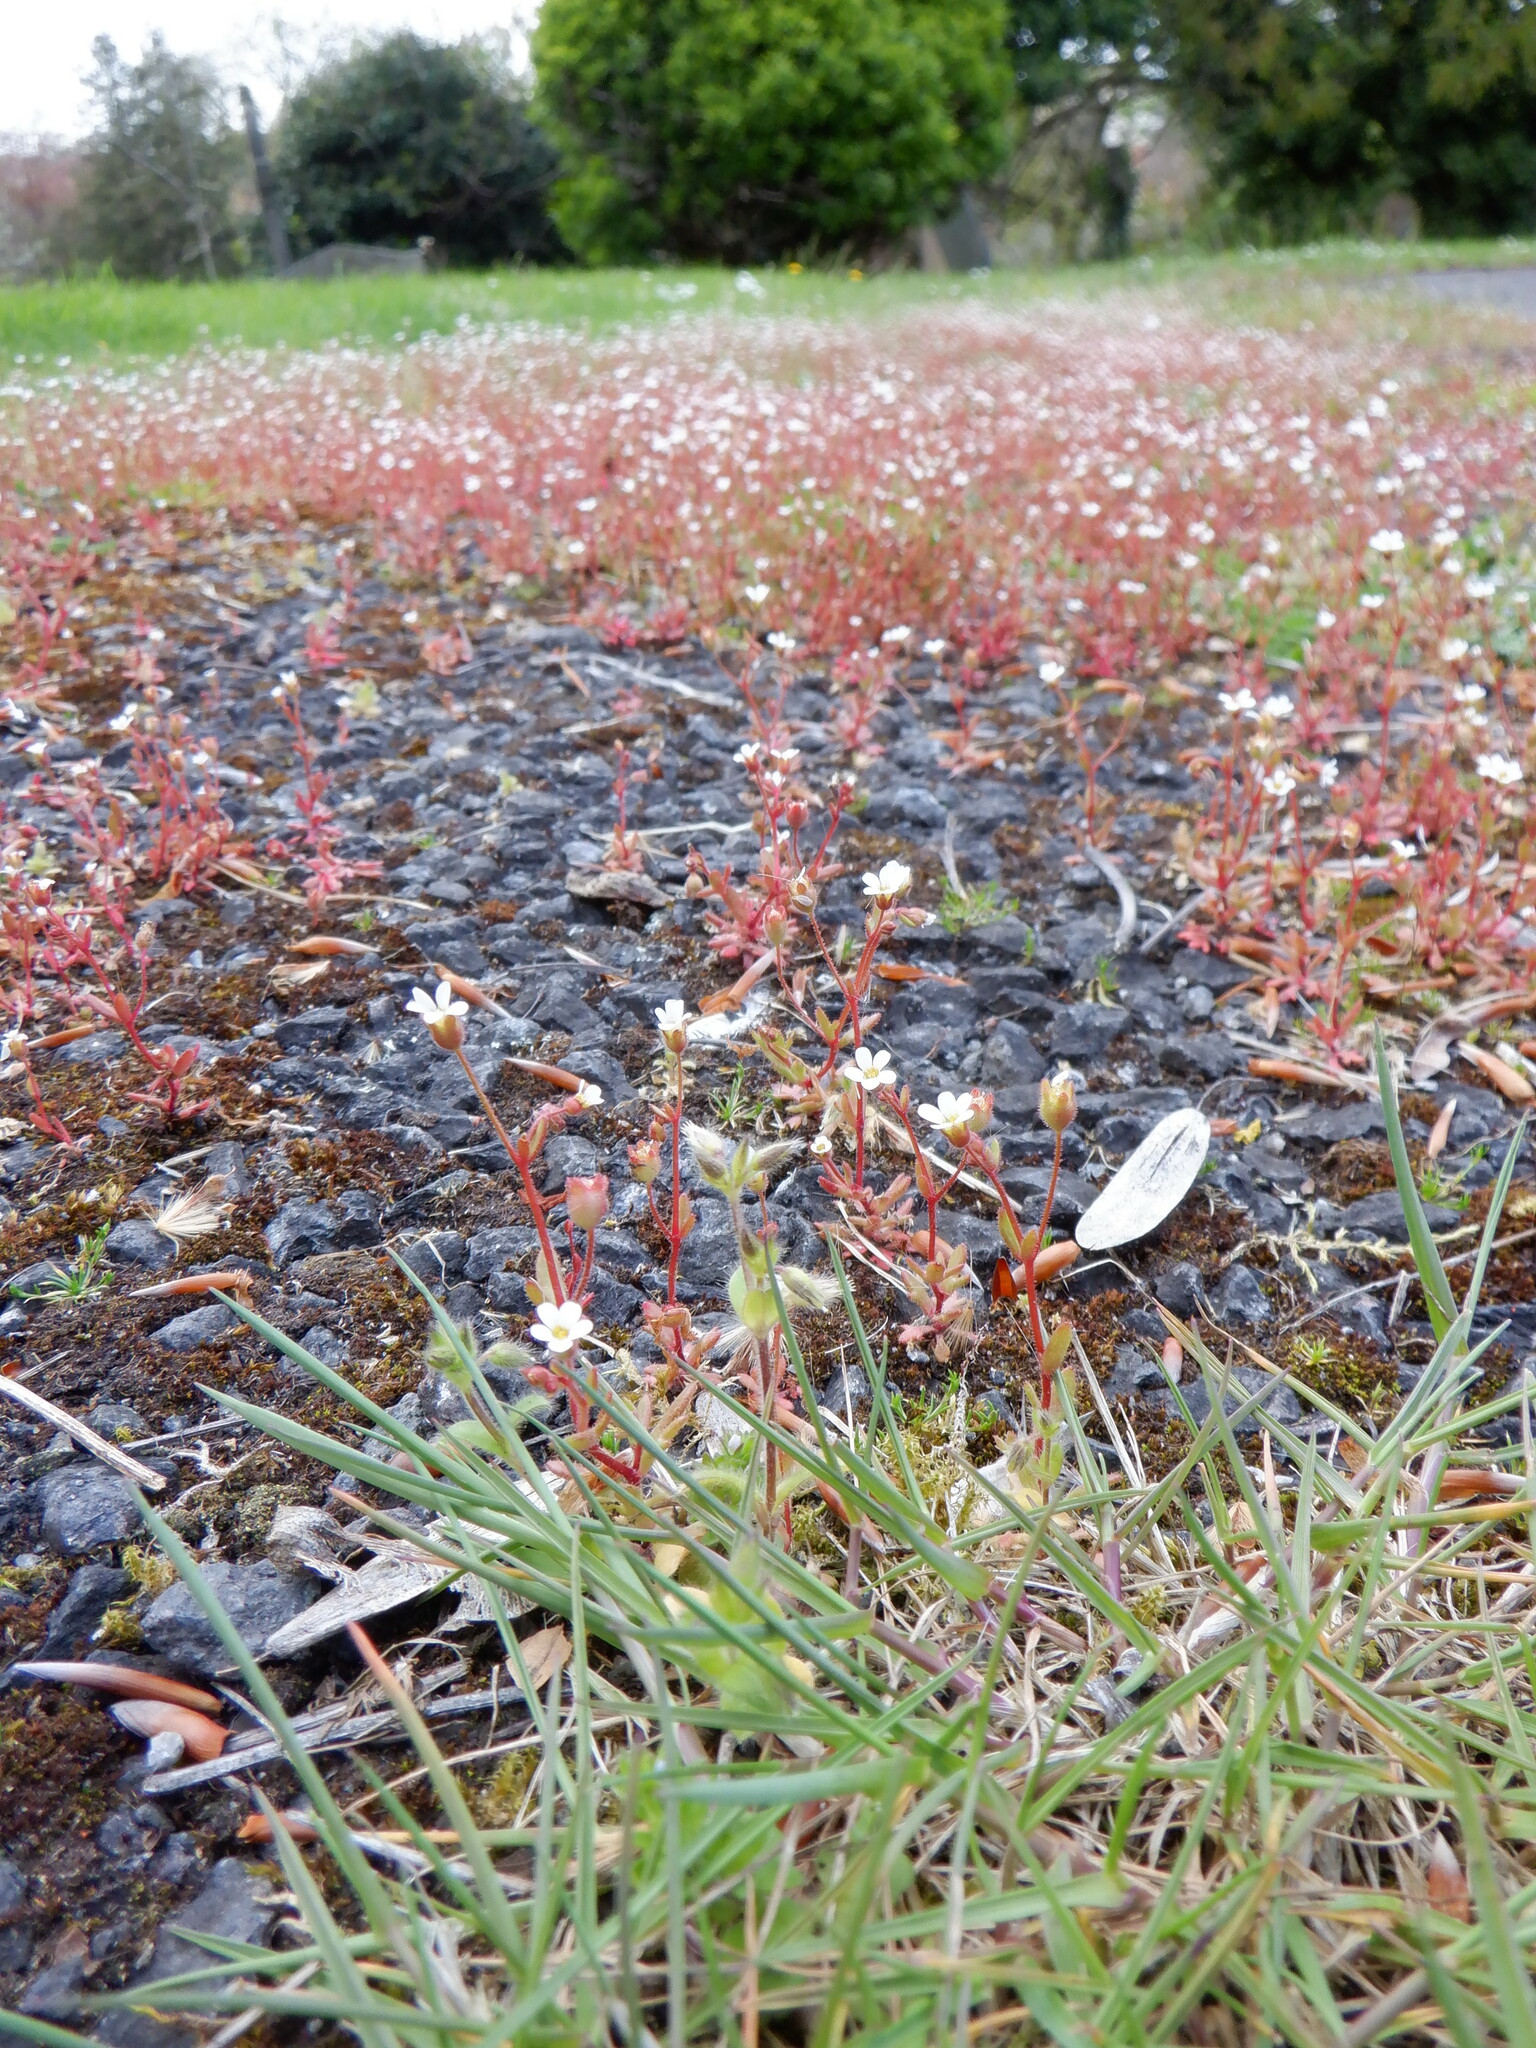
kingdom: Plantae
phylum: Tracheophyta
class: Magnoliopsida
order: Saxifragales
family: Saxifragaceae
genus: Saxifraga
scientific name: Saxifraga tridactylites
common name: Rue-leaved saxifrage
